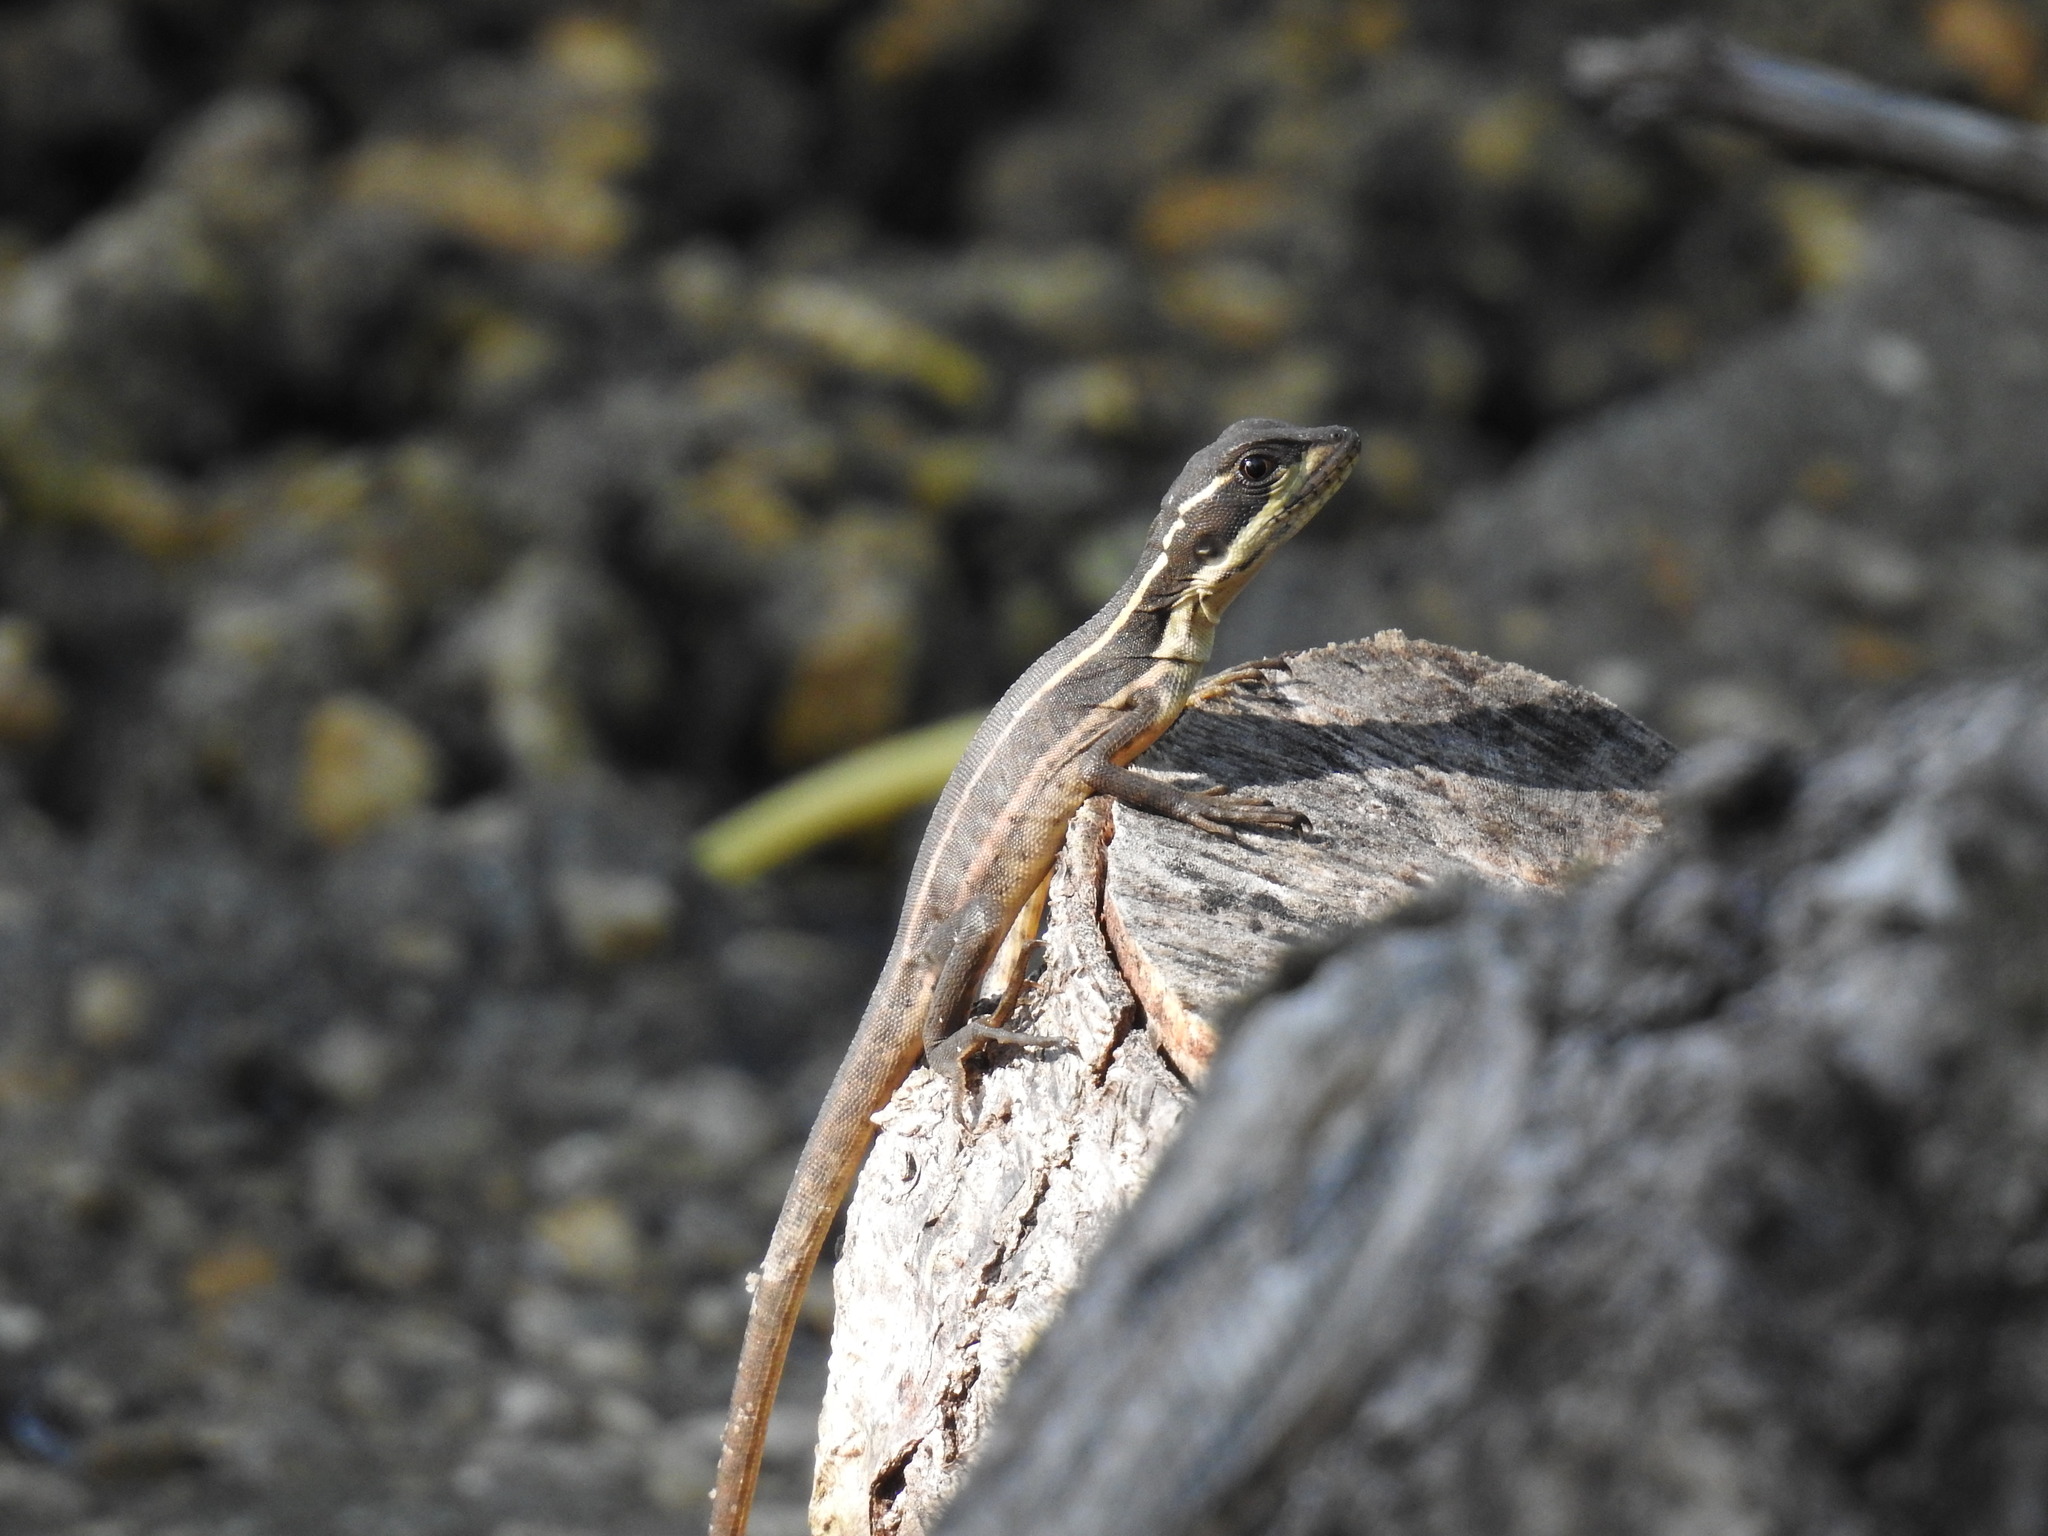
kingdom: Animalia
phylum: Chordata
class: Squamata
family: Corytophanidae
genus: Basiliscus
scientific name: Basiliscus vittatus
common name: Brown basilisk
